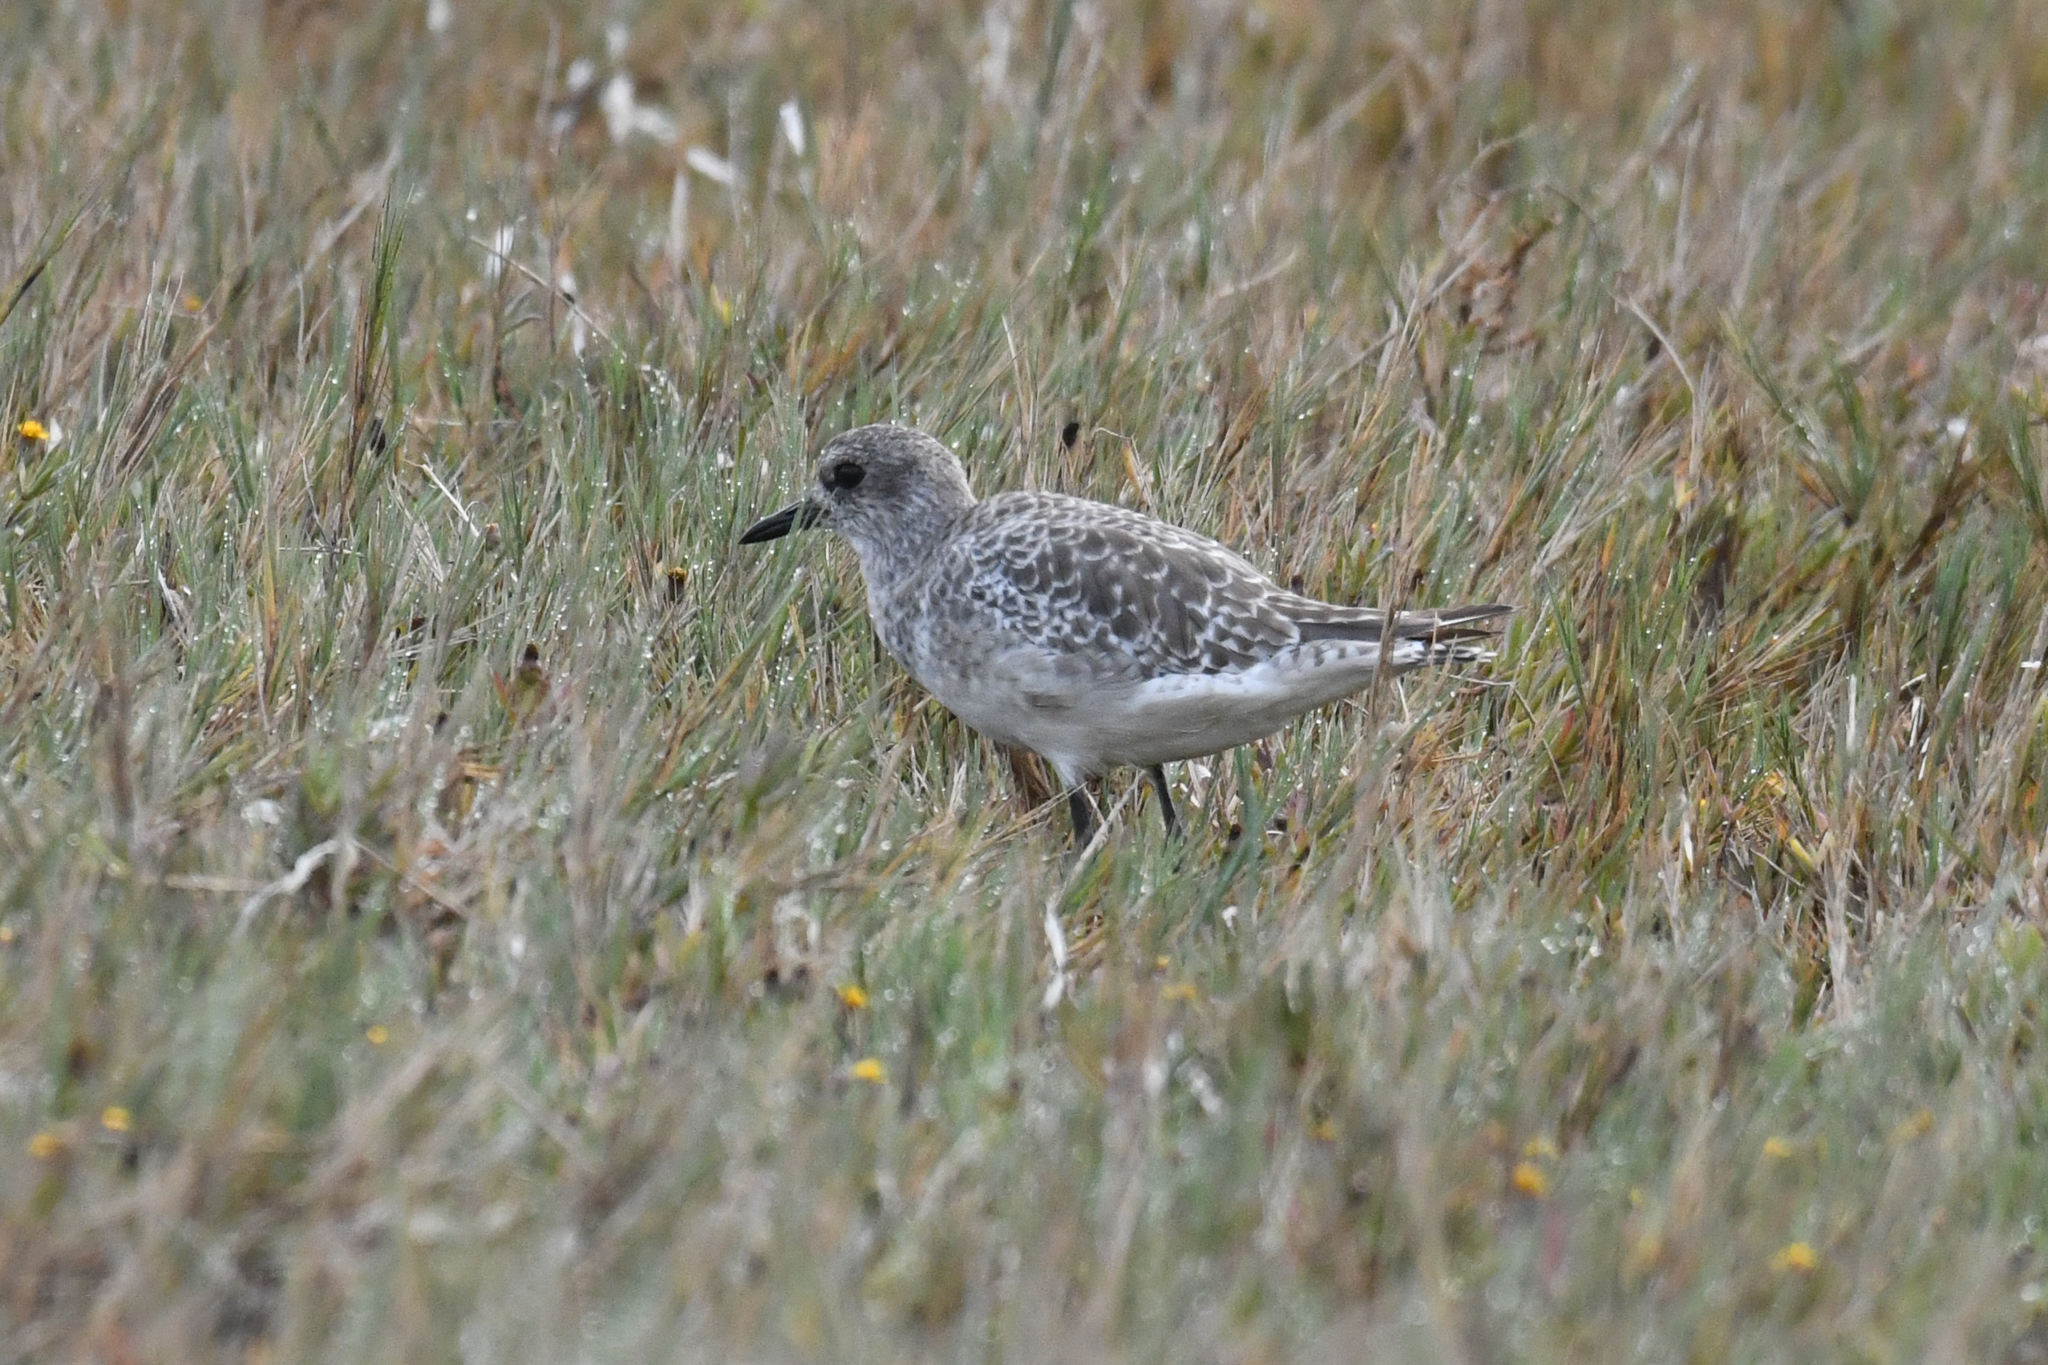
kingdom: Animalia
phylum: Chordata
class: Aves
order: Charadriiformes
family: Charadriidae
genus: Pluvialis
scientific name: Pluvialis squatarola
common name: Grey plover
